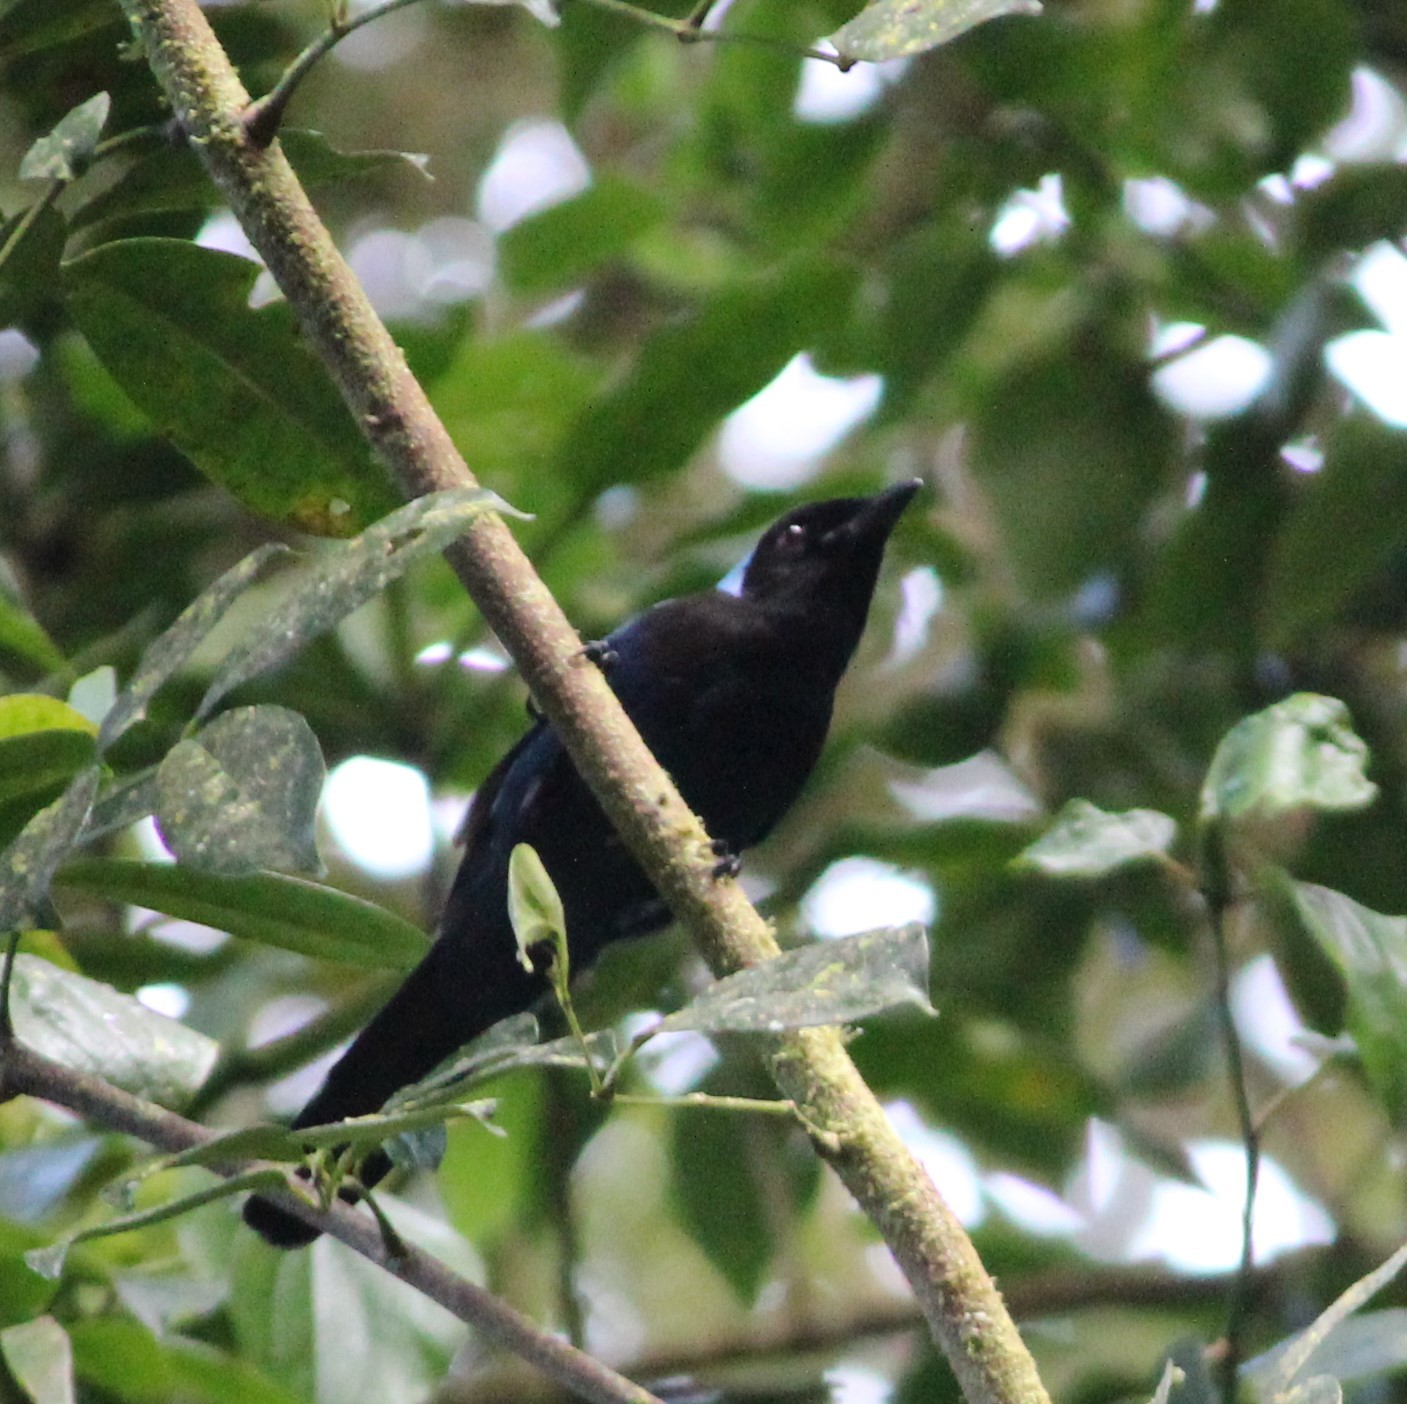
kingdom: Animalia
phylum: Chordata
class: Aves
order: Passeriformes
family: Corvidae
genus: Cyanolyca
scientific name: Cyanolyca cucullata
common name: Azure-hooded jay
